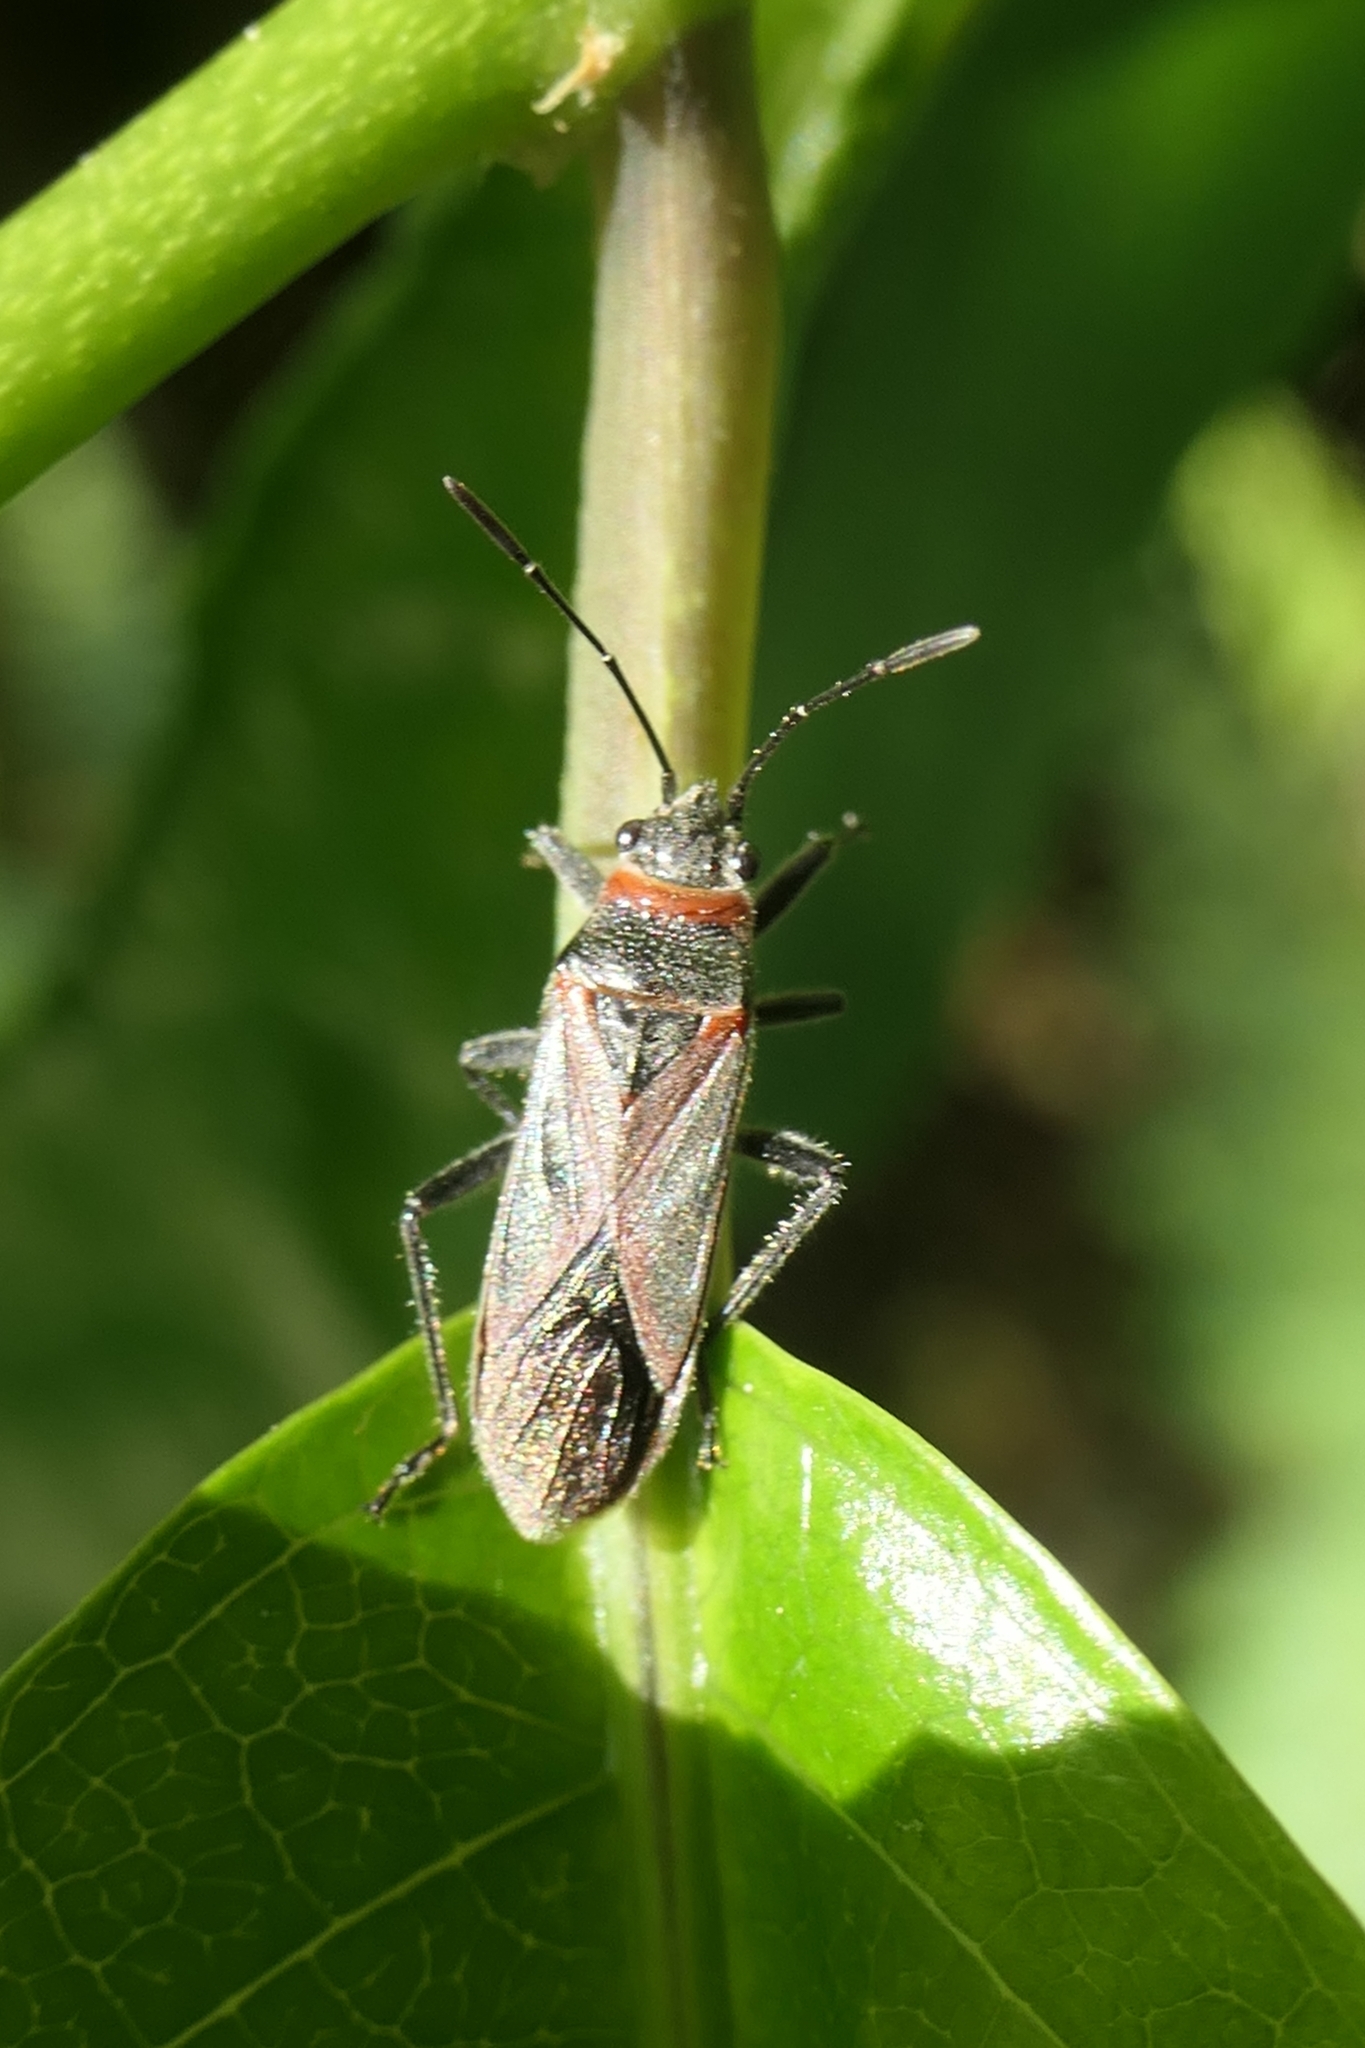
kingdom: Animalia
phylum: Arthropoda
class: Insecta
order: Hemiptera
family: Lygaeidae
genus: Arocatus
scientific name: Arocatus rusticus
